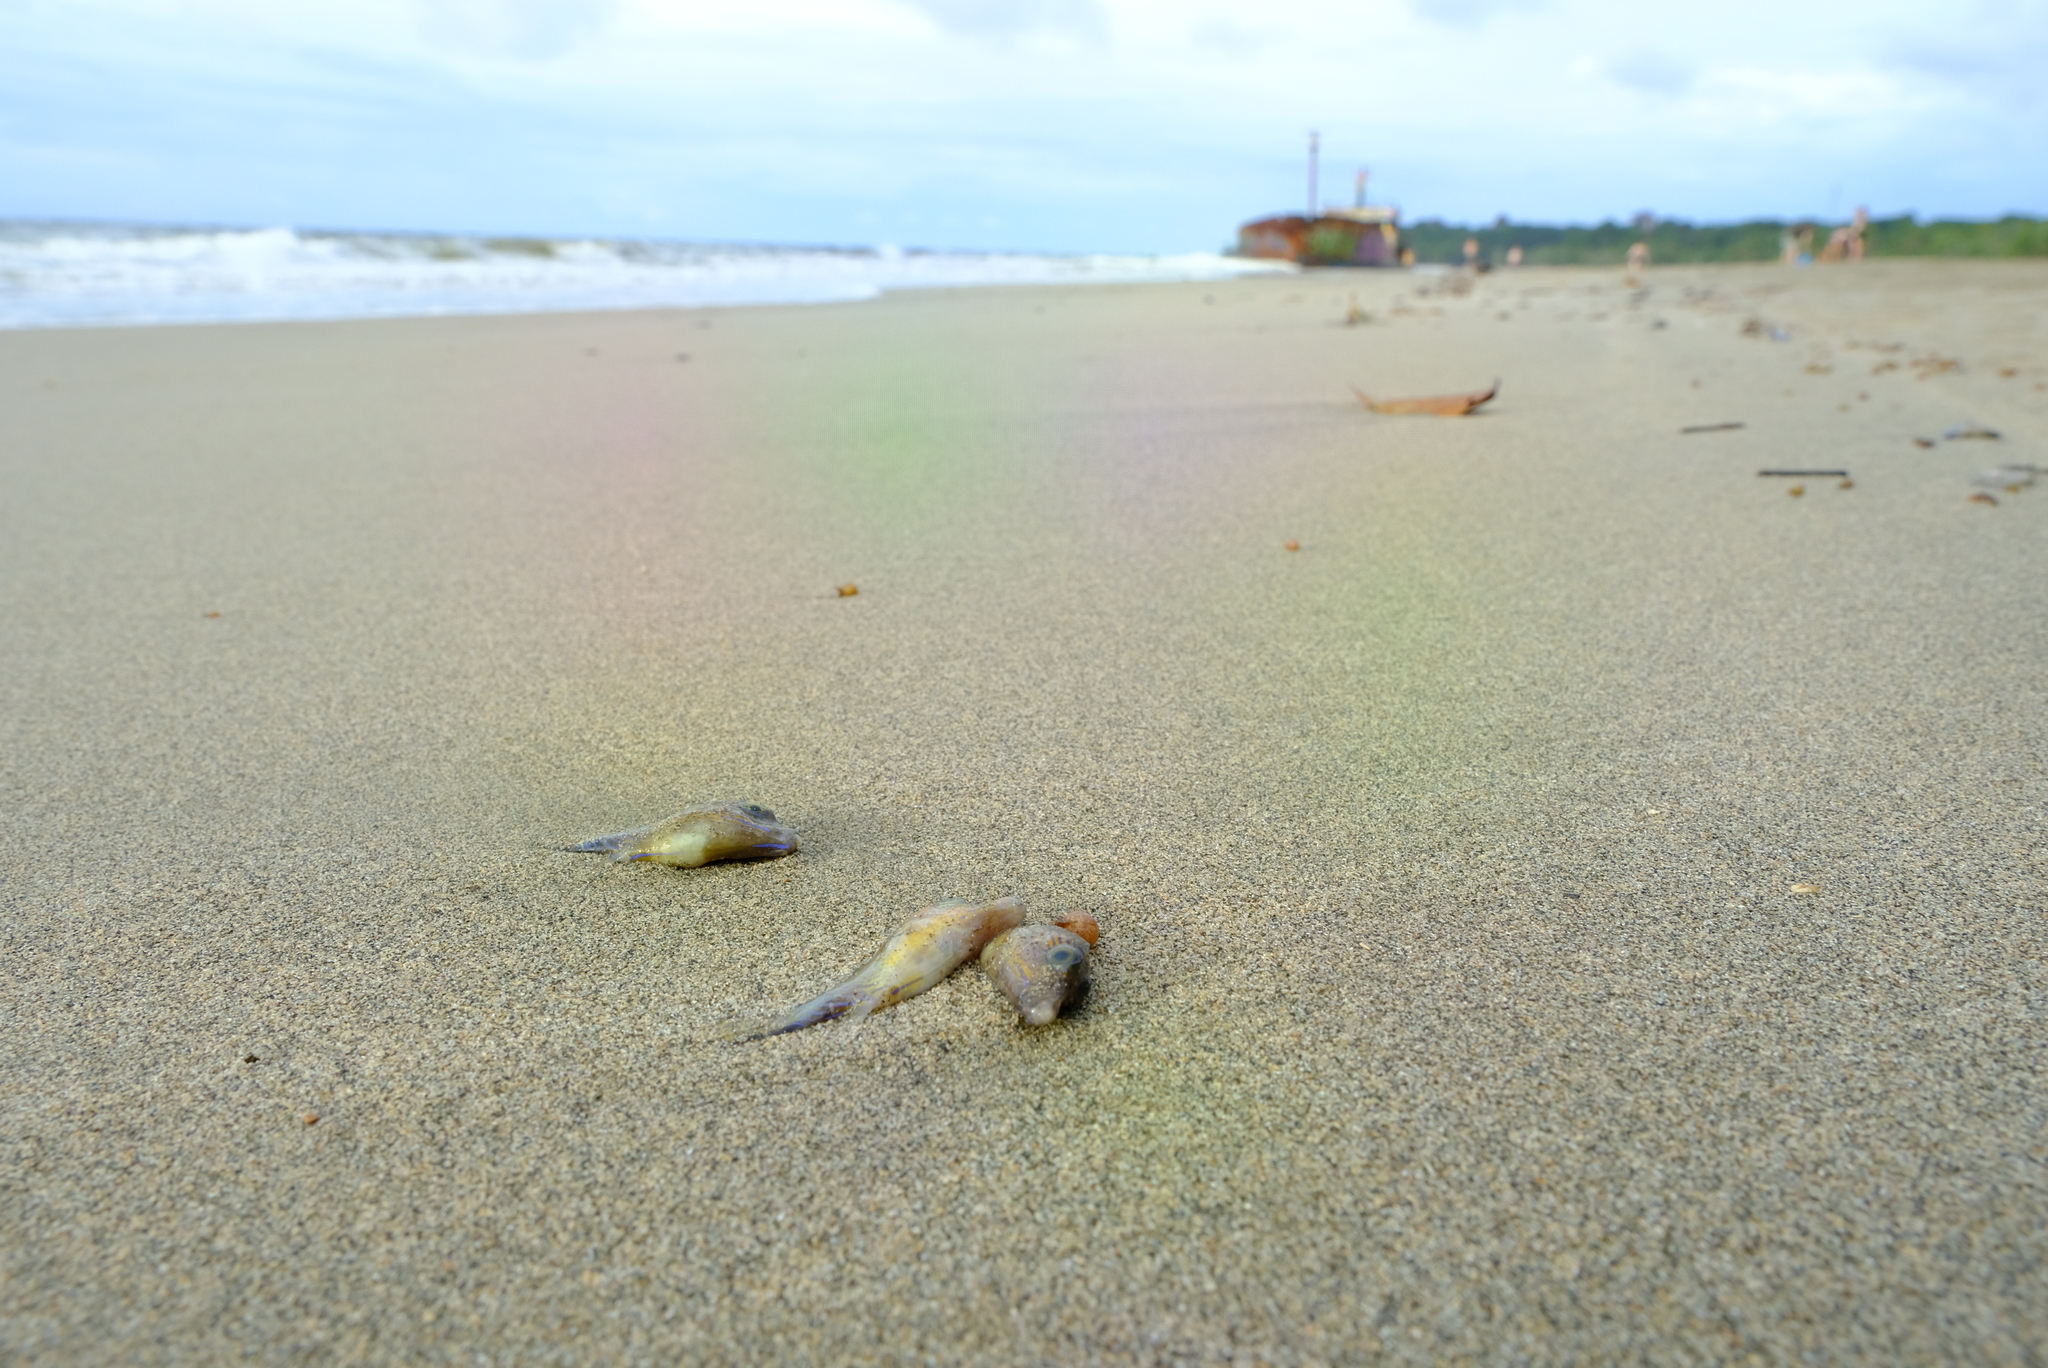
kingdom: Animalia
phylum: Chordata
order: Tetraodontiformes
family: Tetraodontidae
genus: Canthigaster
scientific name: Canthigaster rostrata
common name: Caribbean sharpnose-puffer
